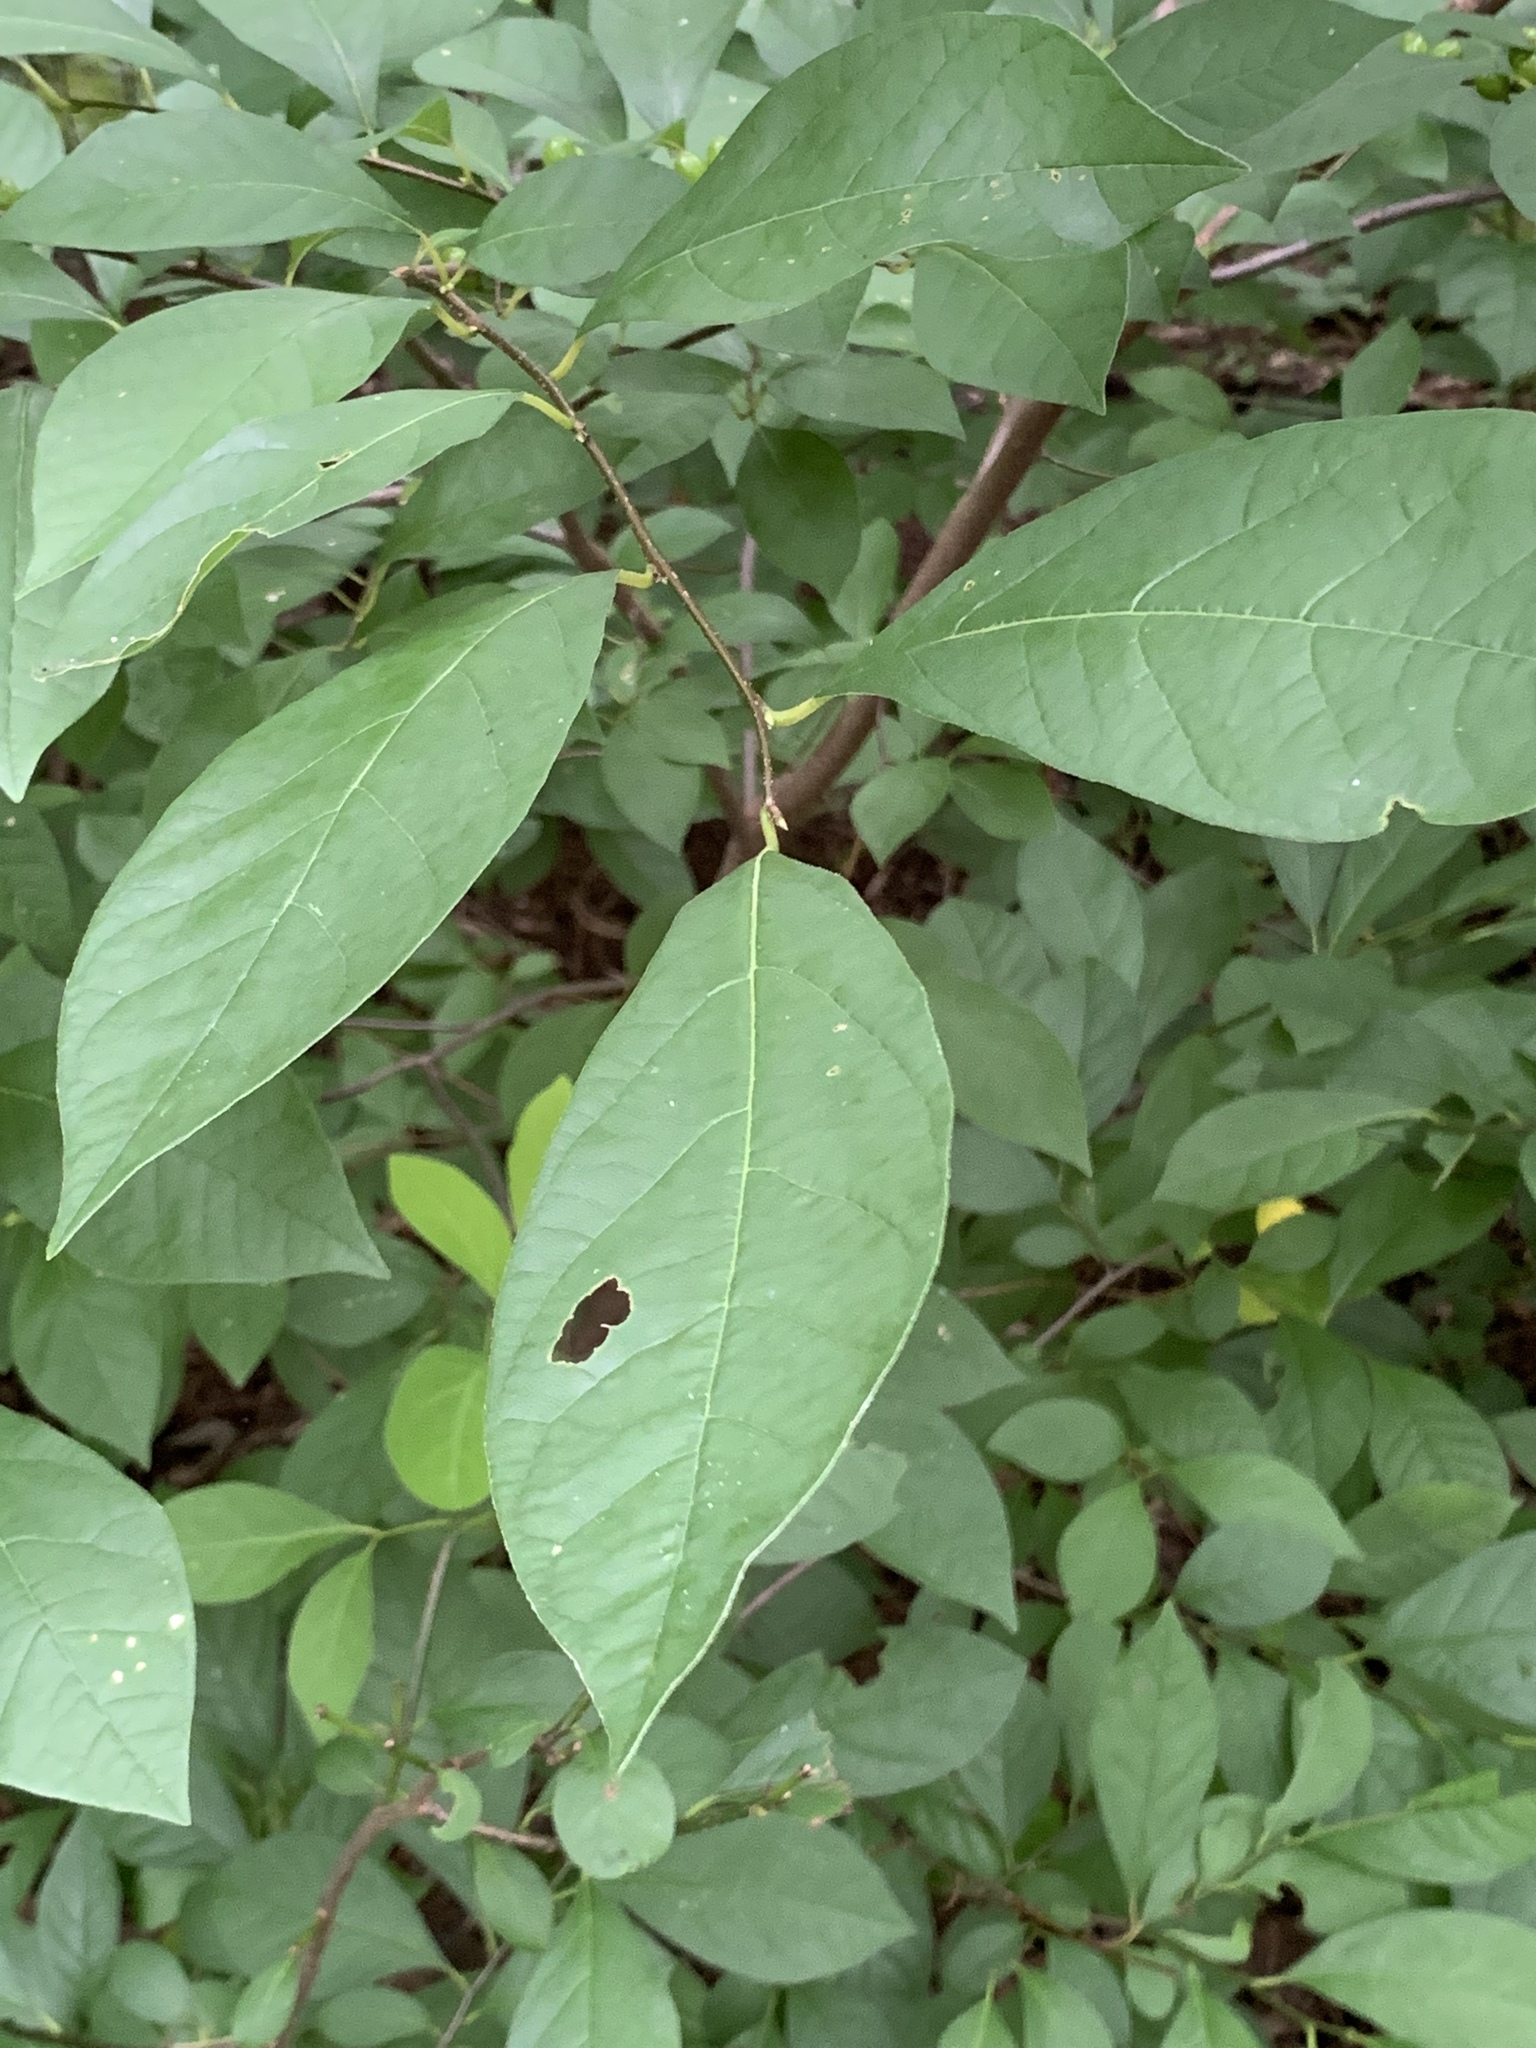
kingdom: Plantae
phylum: Tracheophyta
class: Magnoliopsida
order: Laurales
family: Lauraceae
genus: Lindera
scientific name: Lindera benzoin
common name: Spicebush
